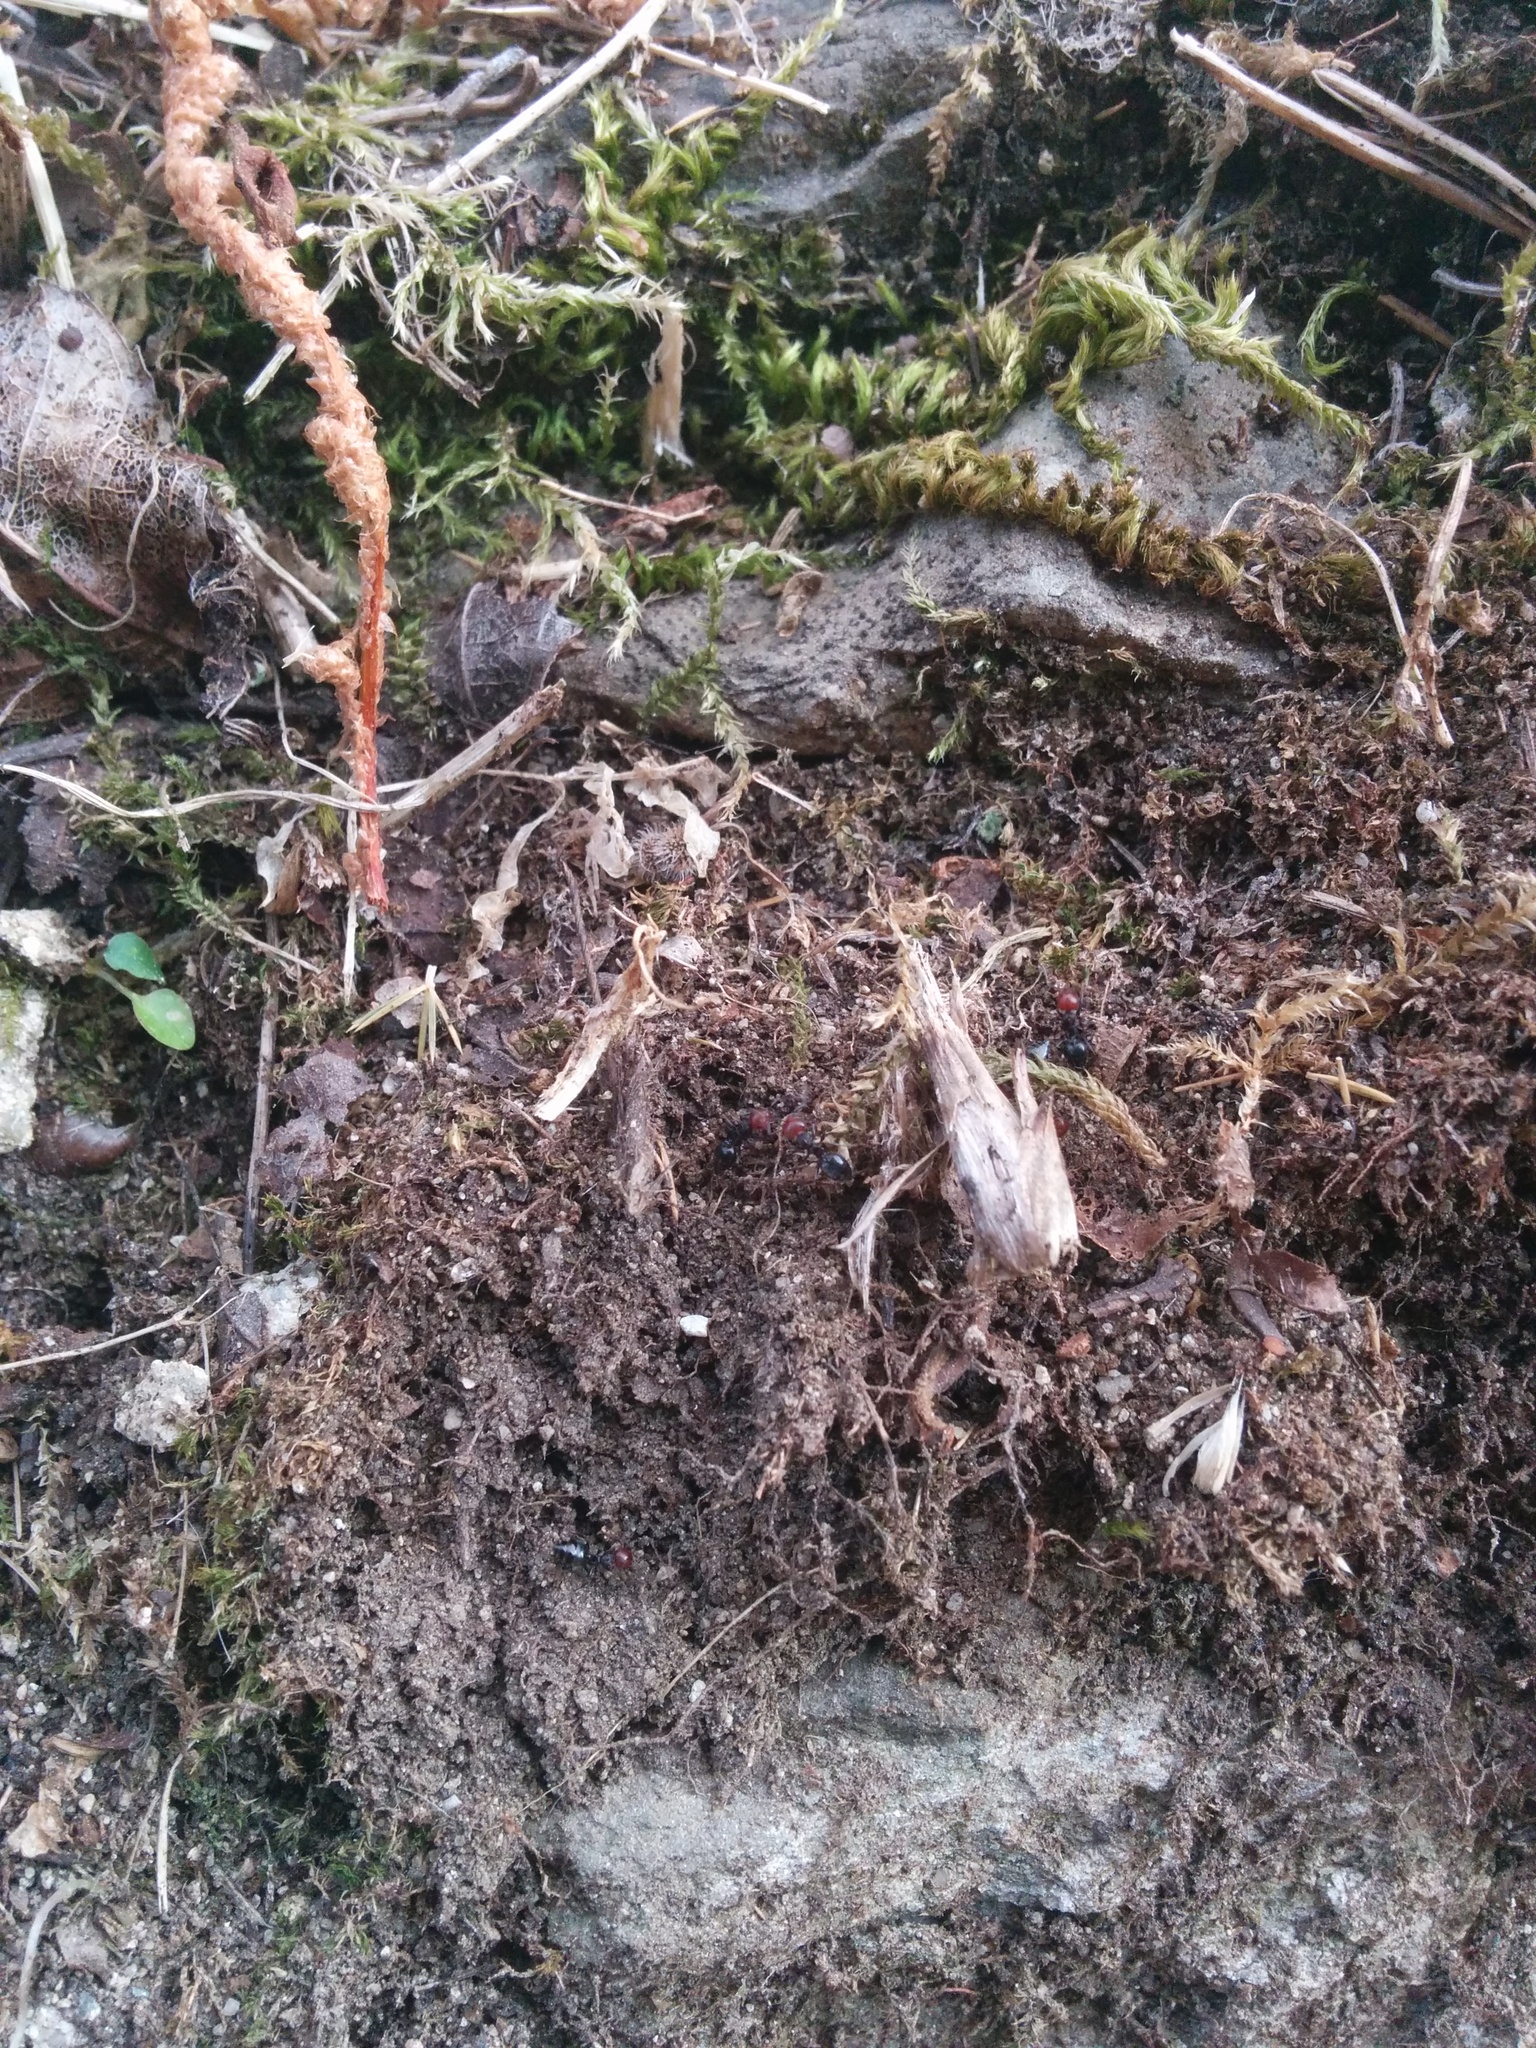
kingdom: Animalia
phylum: Arthropoda
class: Insecta
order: Hymenoptera
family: Formicidae
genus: Crematogaster
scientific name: Crematogaster scutellaris
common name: Fourmi du liège
